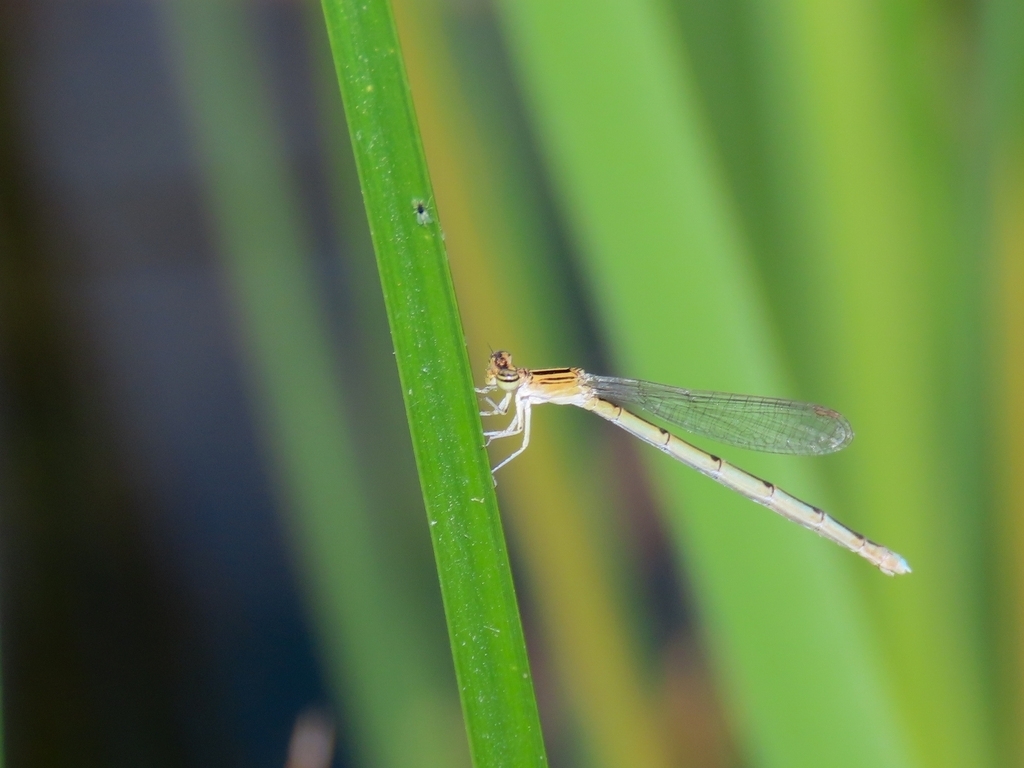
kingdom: Animalia
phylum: Arthropoda
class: Insecta
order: Odonata
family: Coenagrionidae
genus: Enallagma
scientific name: Enallagma basidens
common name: Double-striped bluet
